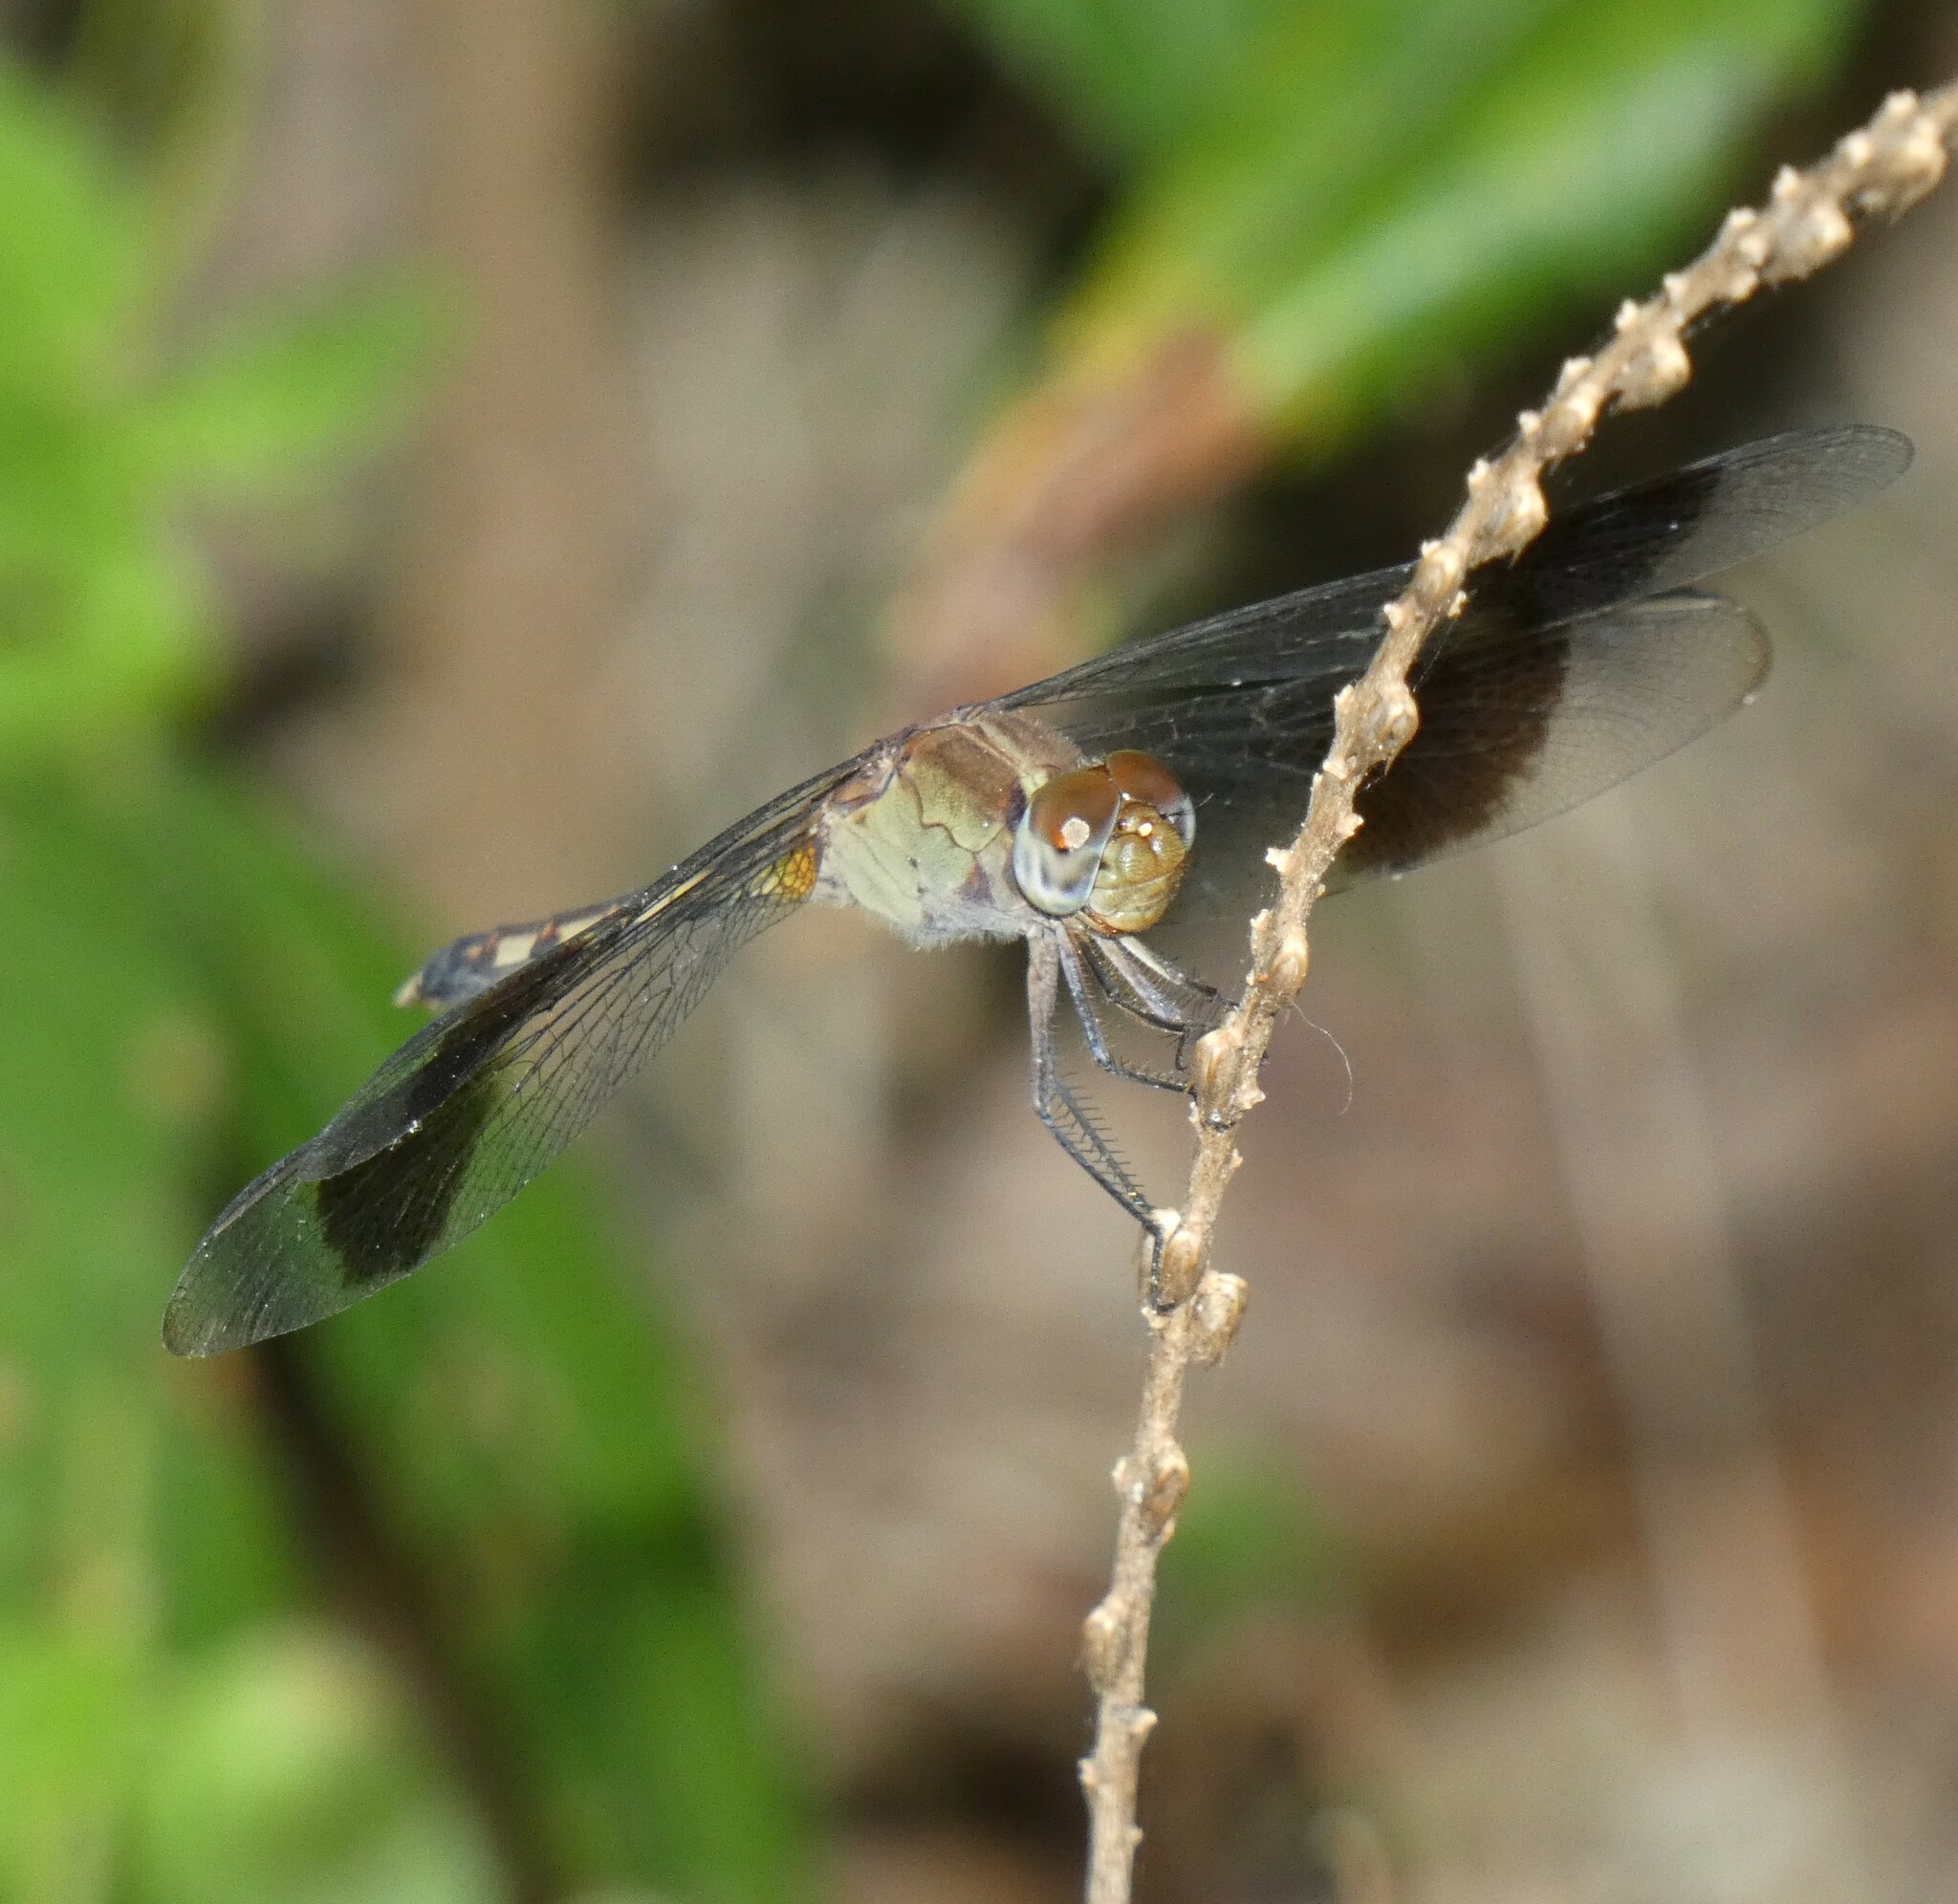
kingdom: Animalia
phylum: Arthropoda
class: Insecta
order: Odonata
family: Libellulidae
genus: Erythrodiplax
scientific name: Erythrodiplax umbrata
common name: Band-winged dragonlet
